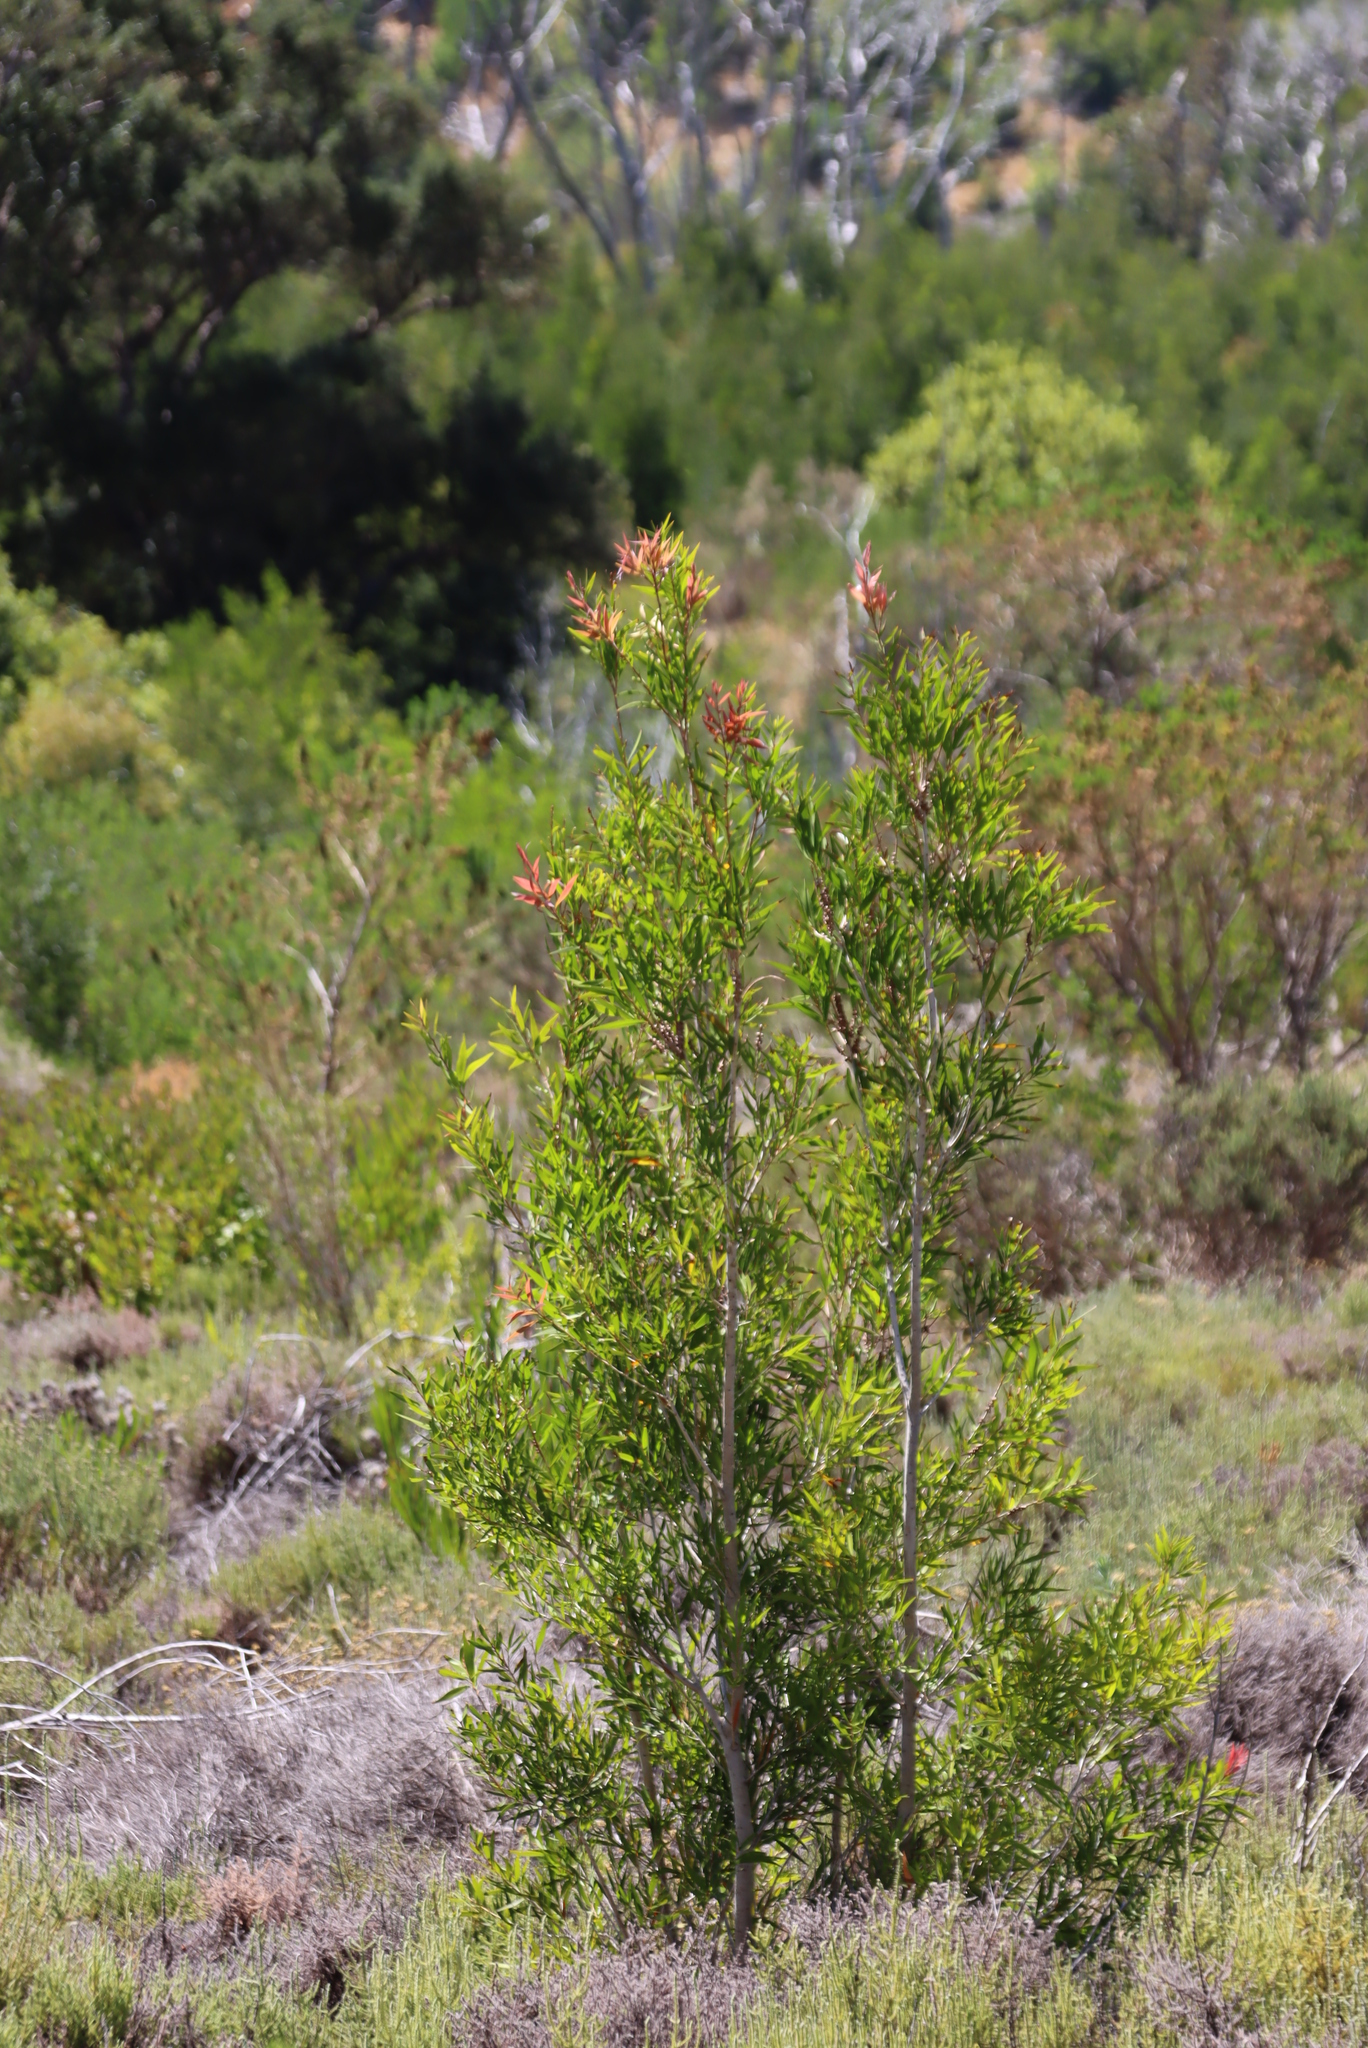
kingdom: Plantae
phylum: Tracheophyta
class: Magnoliopsida
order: Myrtales
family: Myrtaceae
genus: Callistemon
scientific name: Callistemon salignus
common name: White bottlebrush
